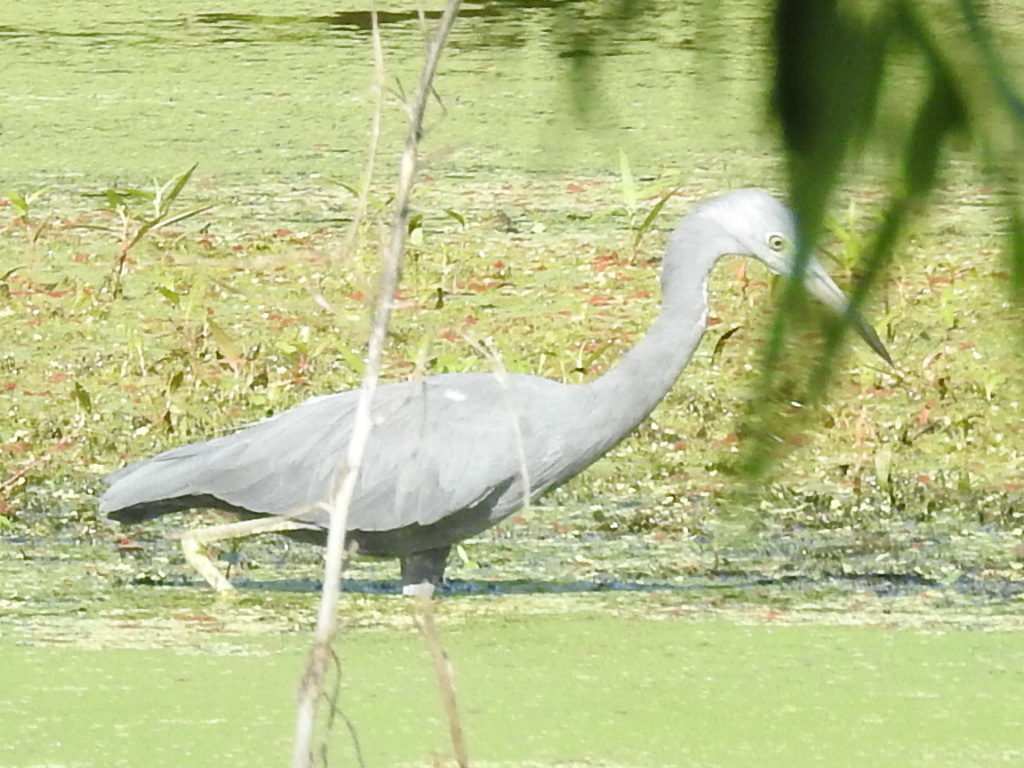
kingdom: Animalia
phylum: Chordata
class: Aves
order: Pelecaniformes
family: Ardeidae
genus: Egretta
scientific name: Egretta caerulea
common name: Little blue heron
